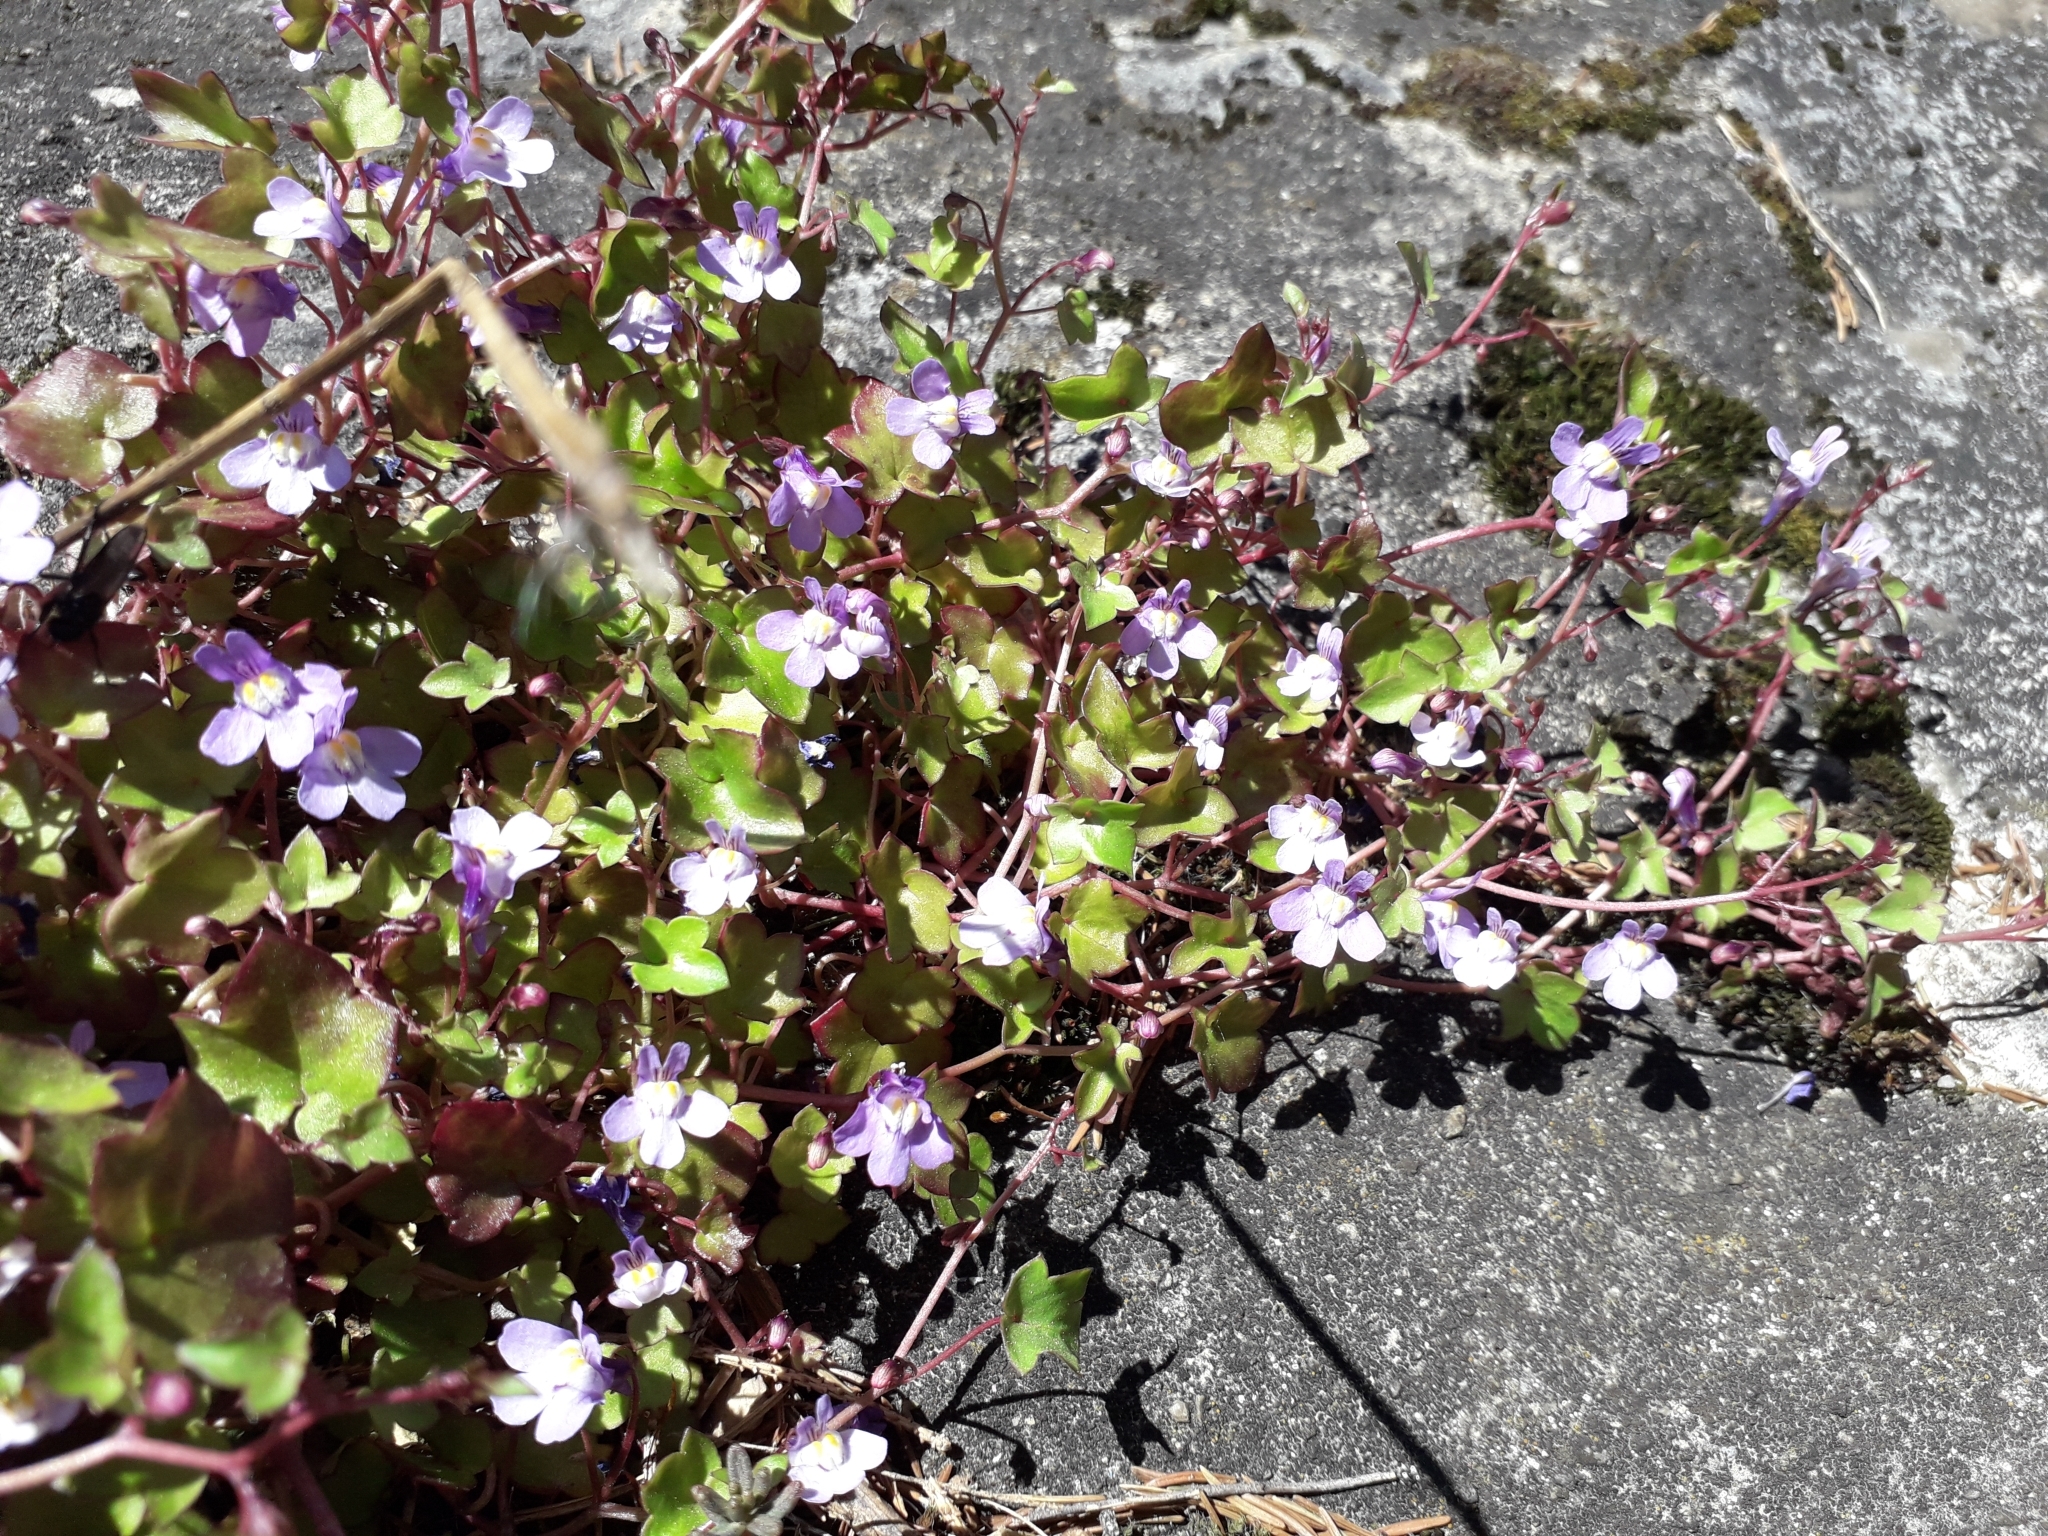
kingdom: Plantae
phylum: Tracheophyta
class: Magnoliopsida
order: Lamiales
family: Plantaginaceae
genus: Cymbalaria
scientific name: Cymbalaria muralis
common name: Ivy-leaved toadflax
